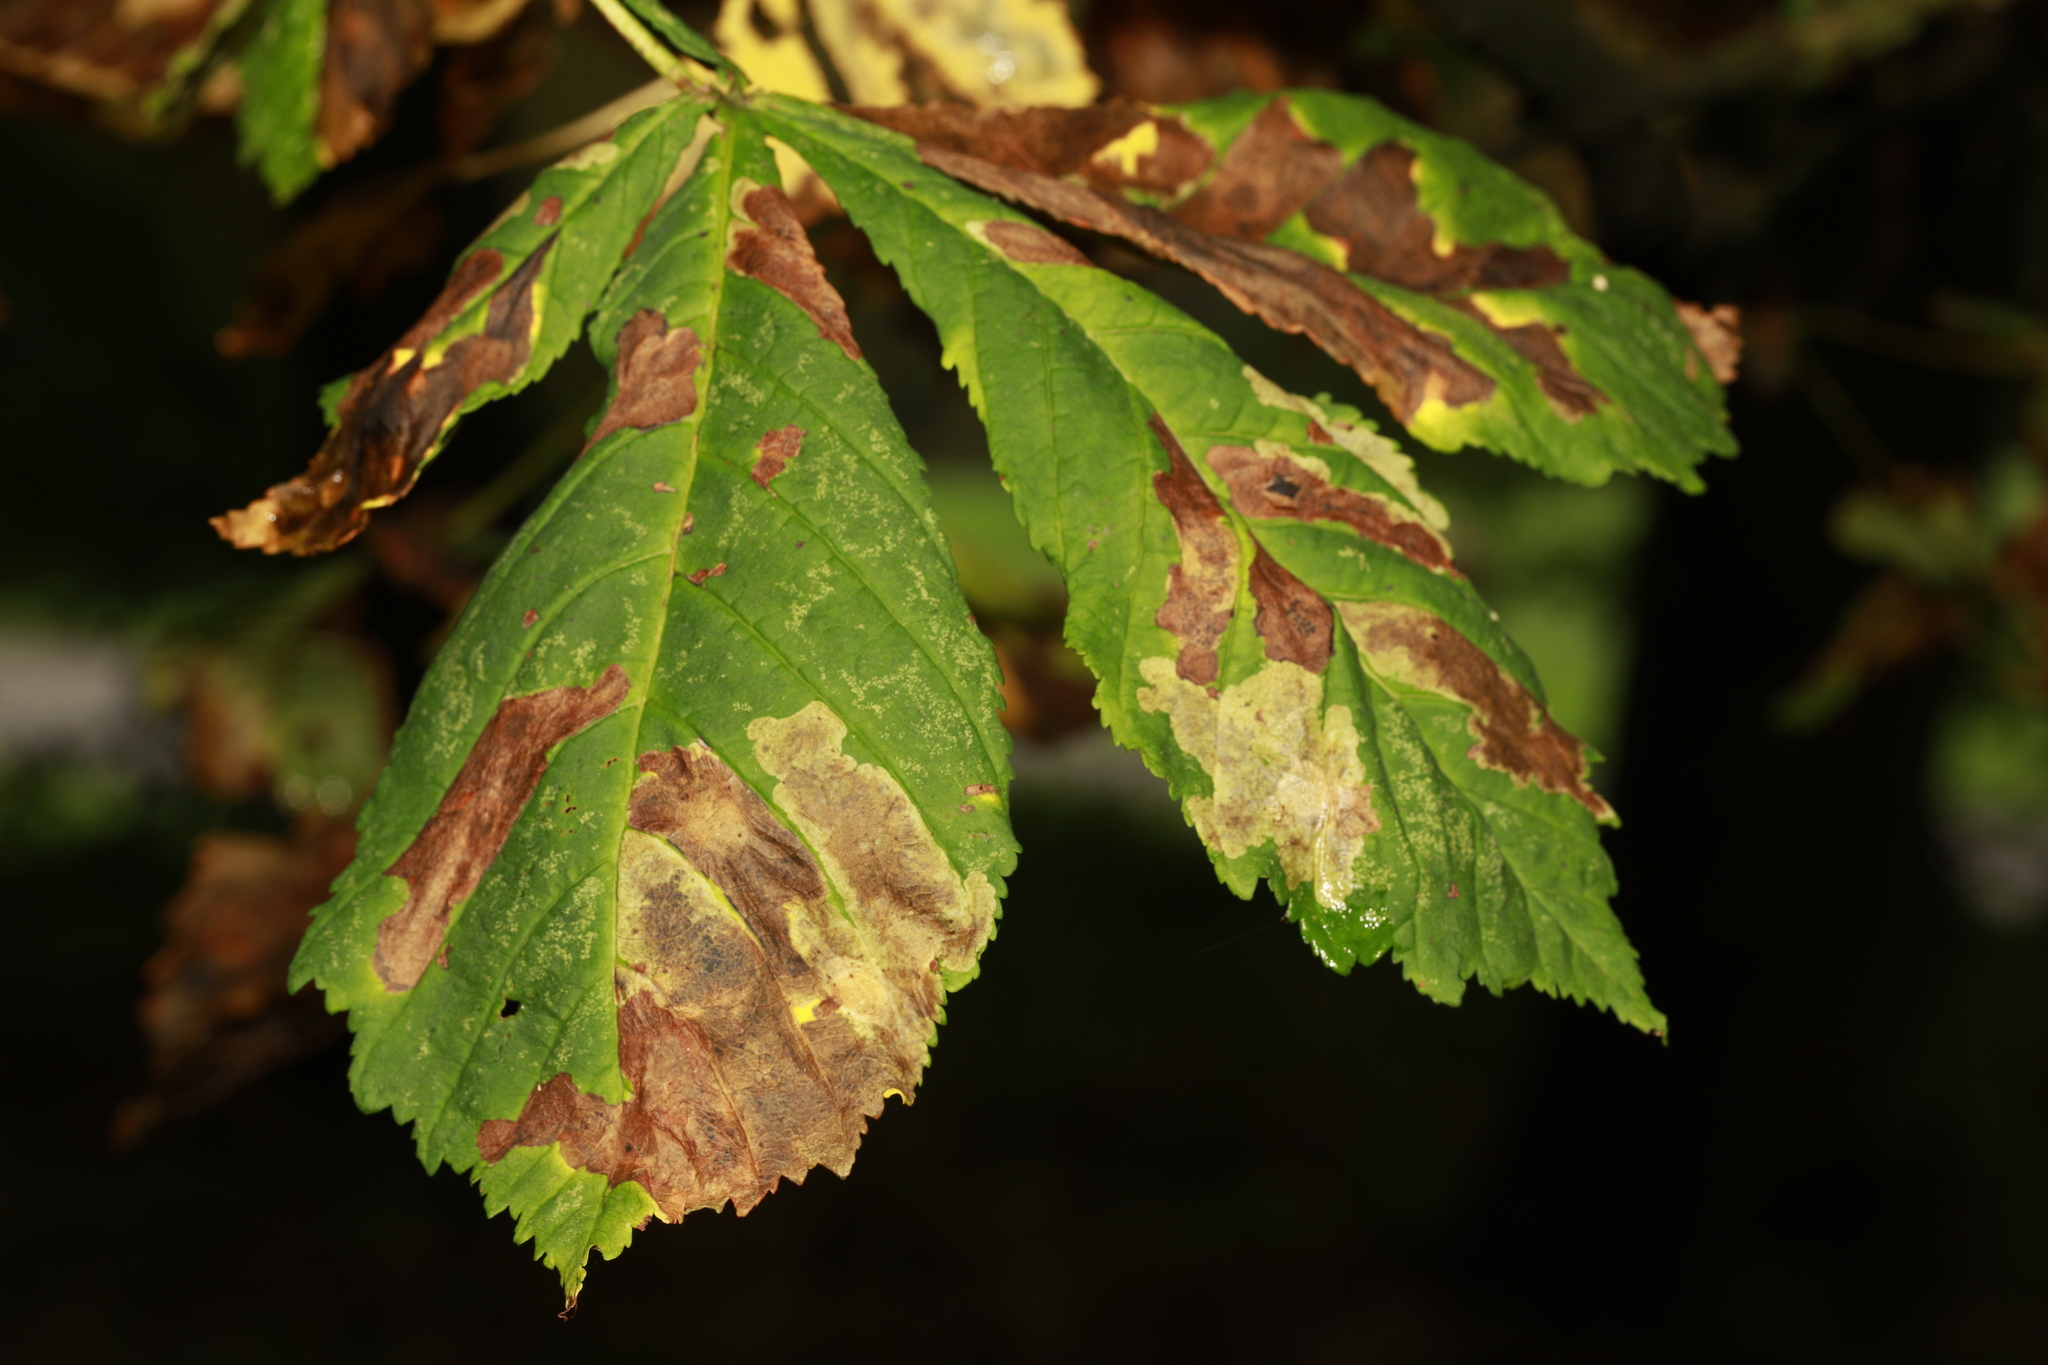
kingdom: Plantae
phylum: Tracheophyta
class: Magnoliopsida
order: Sapindales
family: Sapindaceae
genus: Aesculus
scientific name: Aesculus hippocastanum
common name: Horse-chestnut
